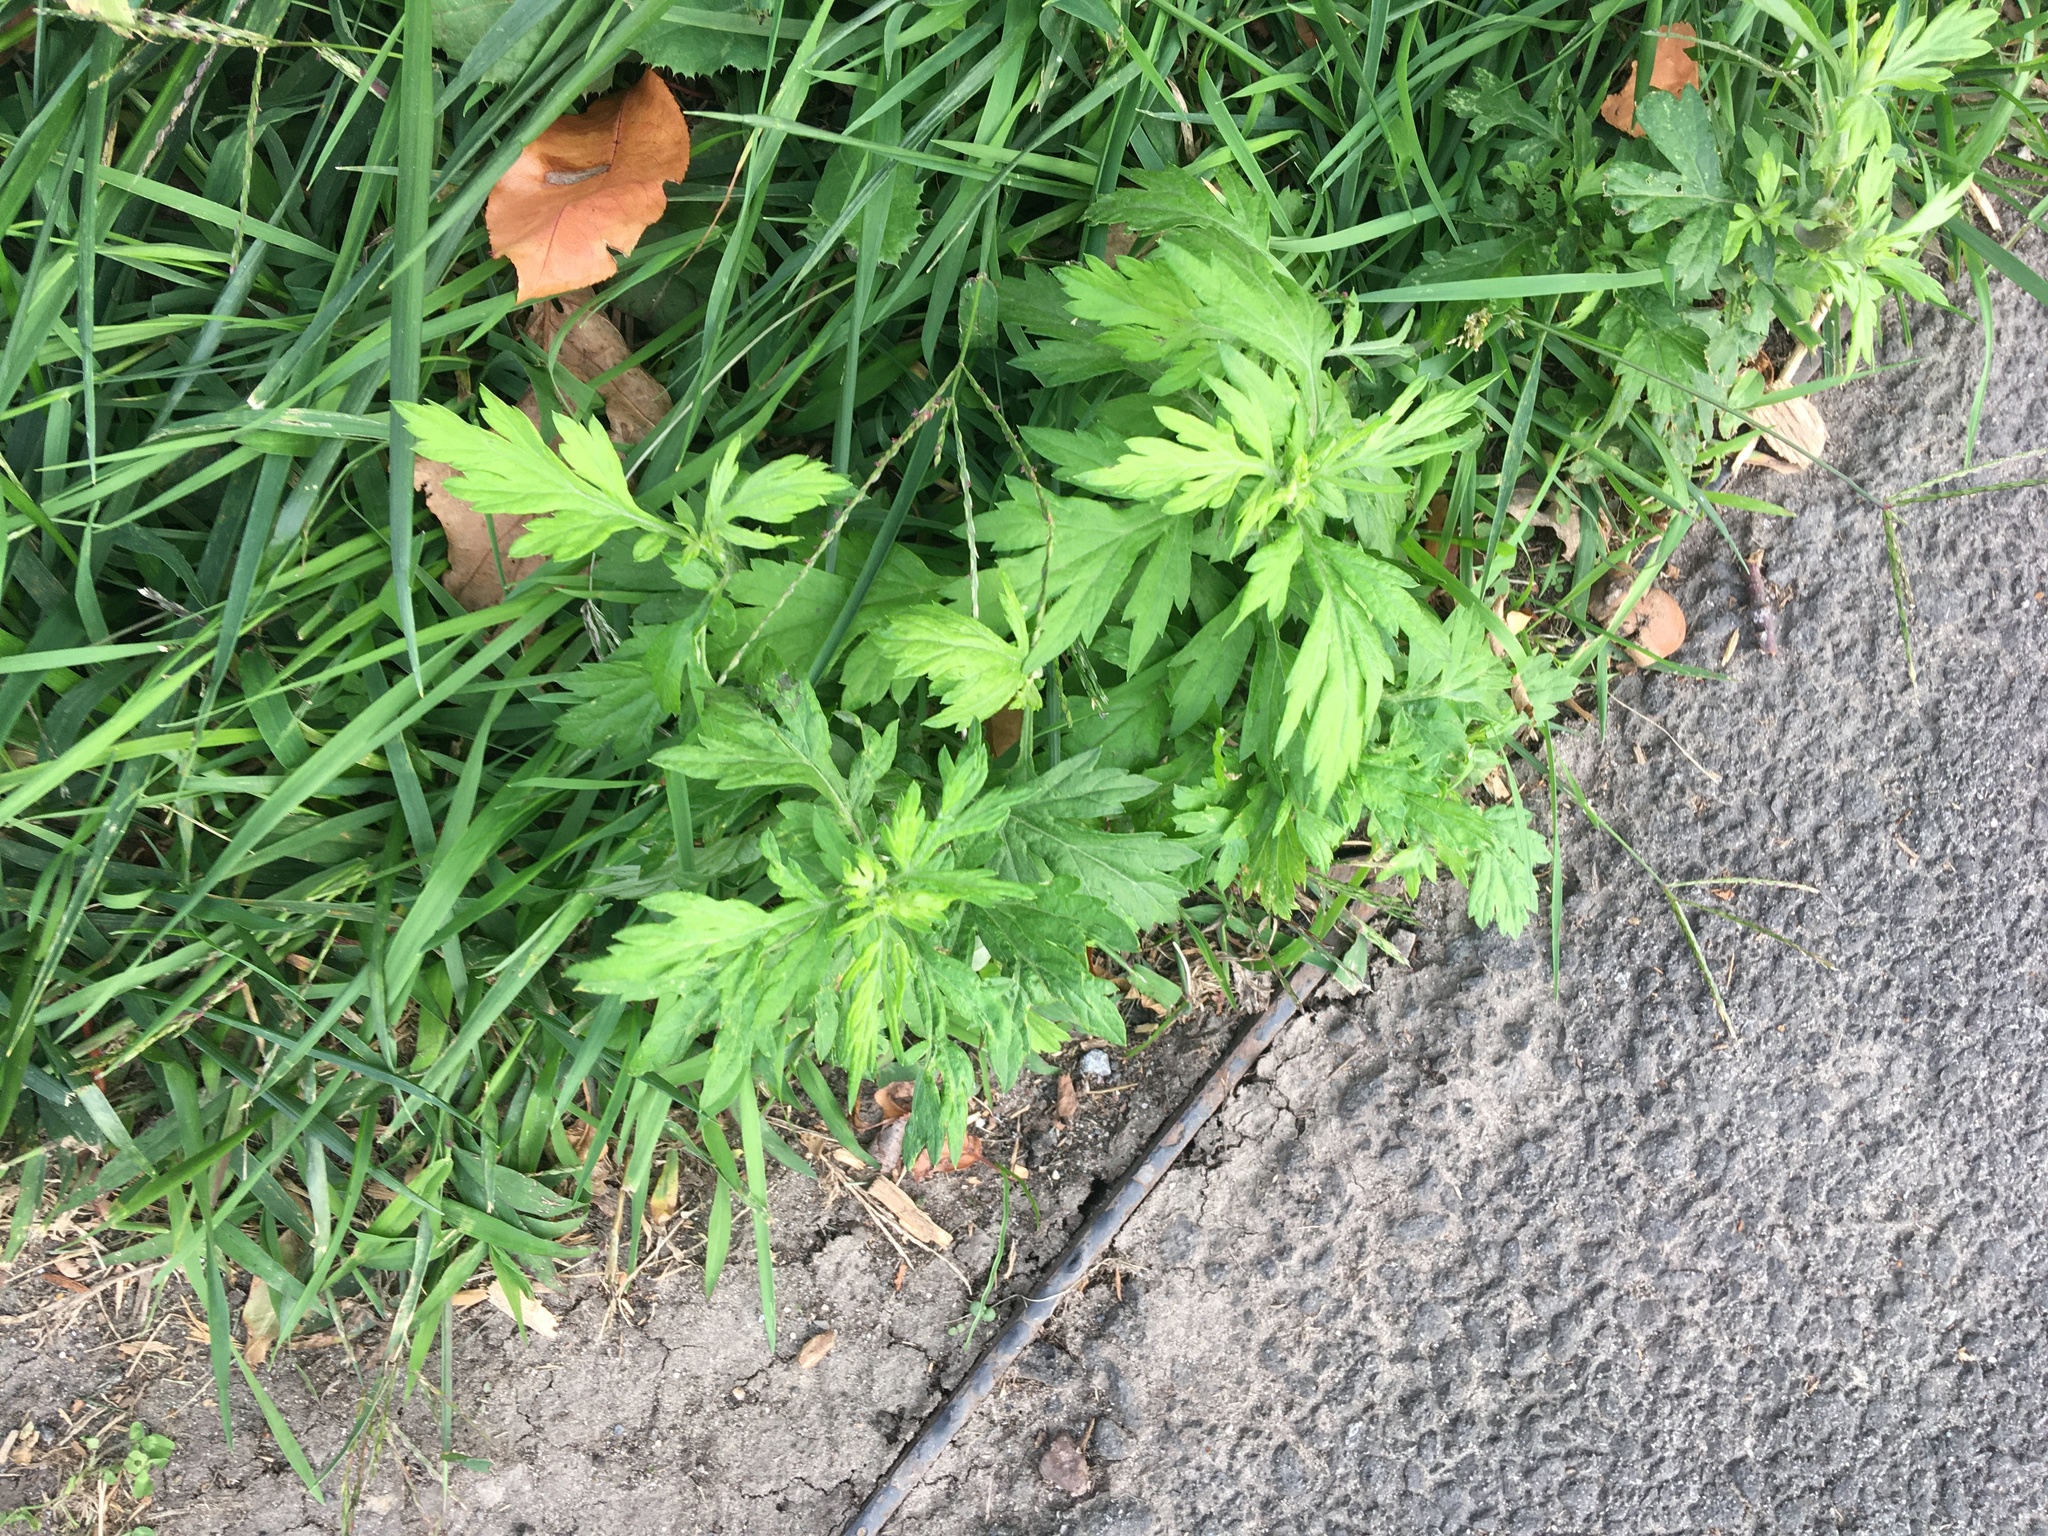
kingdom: Plantae
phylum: Tracheophyta
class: Magnoliopsida
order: Asterales
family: Asteraceae
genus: Artemisia
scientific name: Artemisia vulgaris
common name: Mugwort
